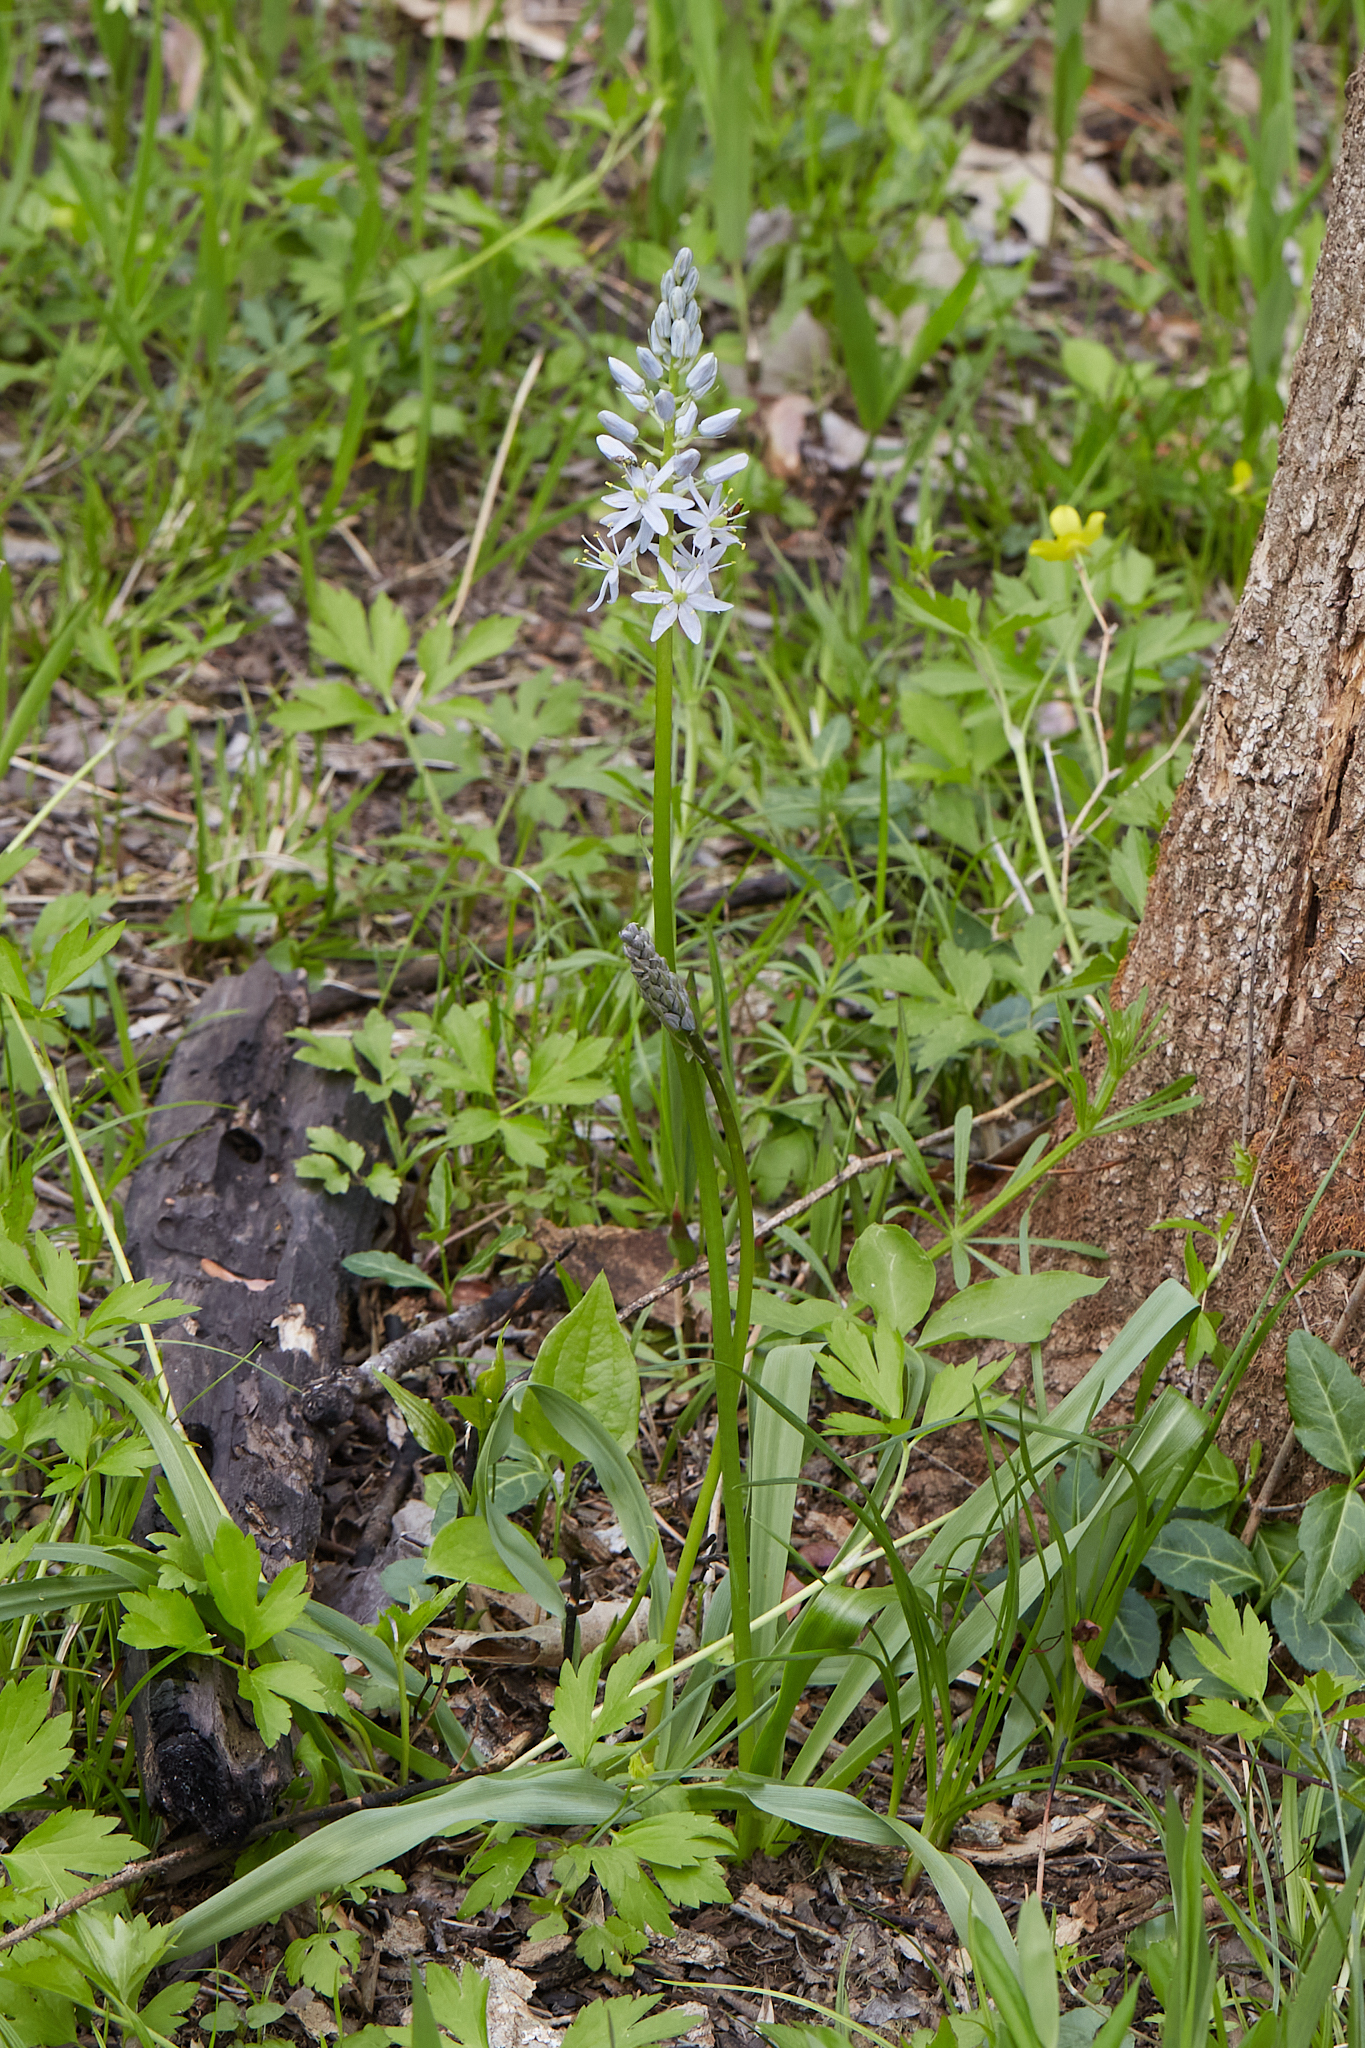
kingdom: Plantae
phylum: Tracheophyta
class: Liliopsida
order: Asparagales
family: Asparagaceae
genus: Camassia
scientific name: Camassia scilloides
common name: Wild hyacinth
